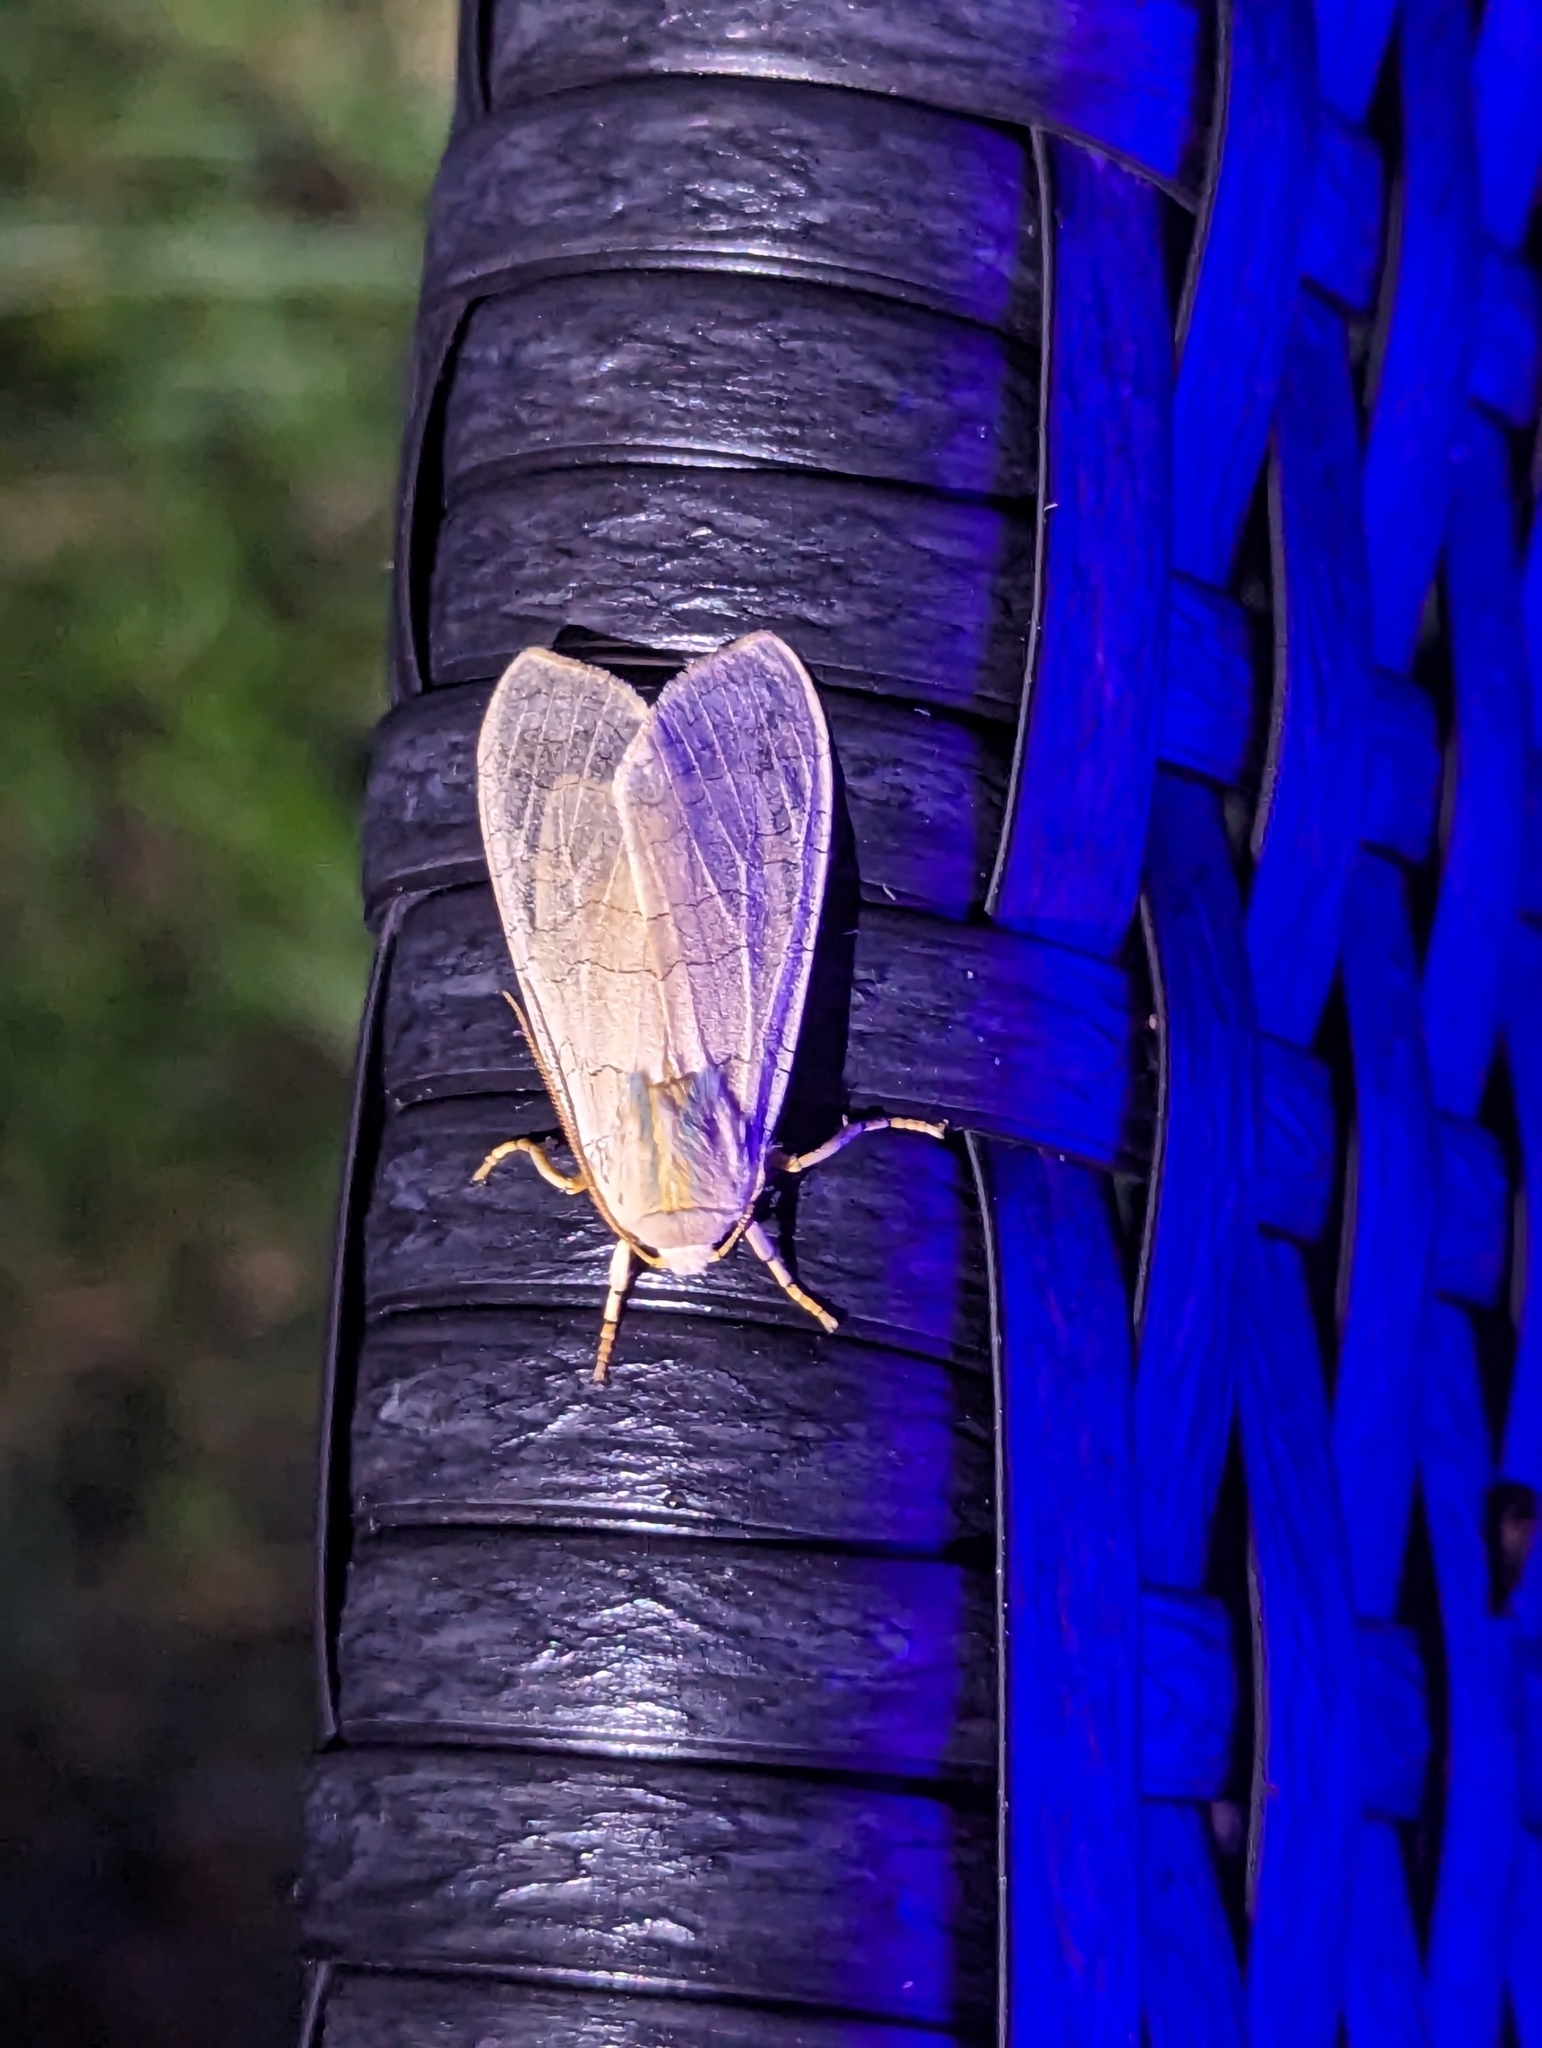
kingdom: Animalia
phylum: Arthropoda
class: Insecta
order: Lepidoptera
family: Erebidae
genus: Halysidota
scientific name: Halysidota tessellaris
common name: Banded tussock moth
